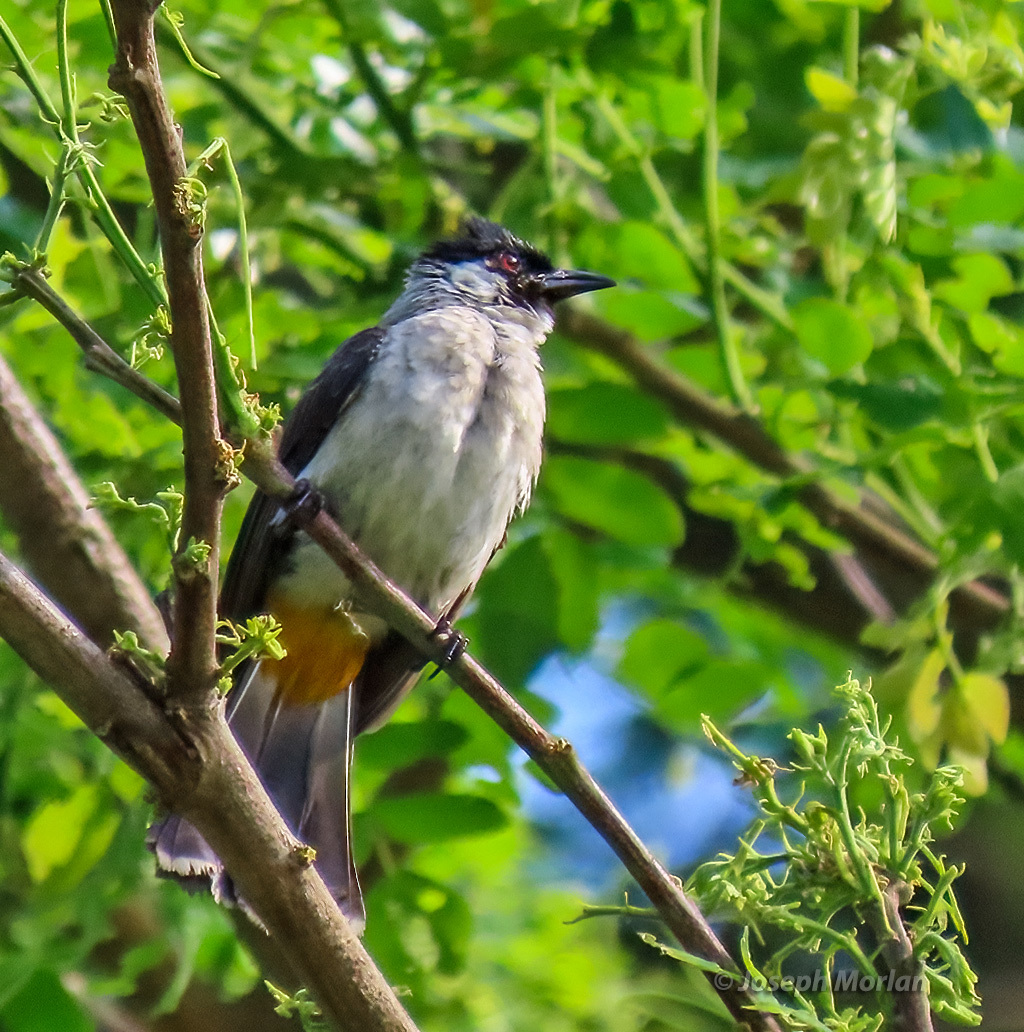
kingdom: Animalia
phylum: Chordata
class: Aves
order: Passeriformes
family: Pycnonotidae
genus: Pycnonotus
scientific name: Pycnonotus aurigaster
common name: Sooty-headed bulbul
